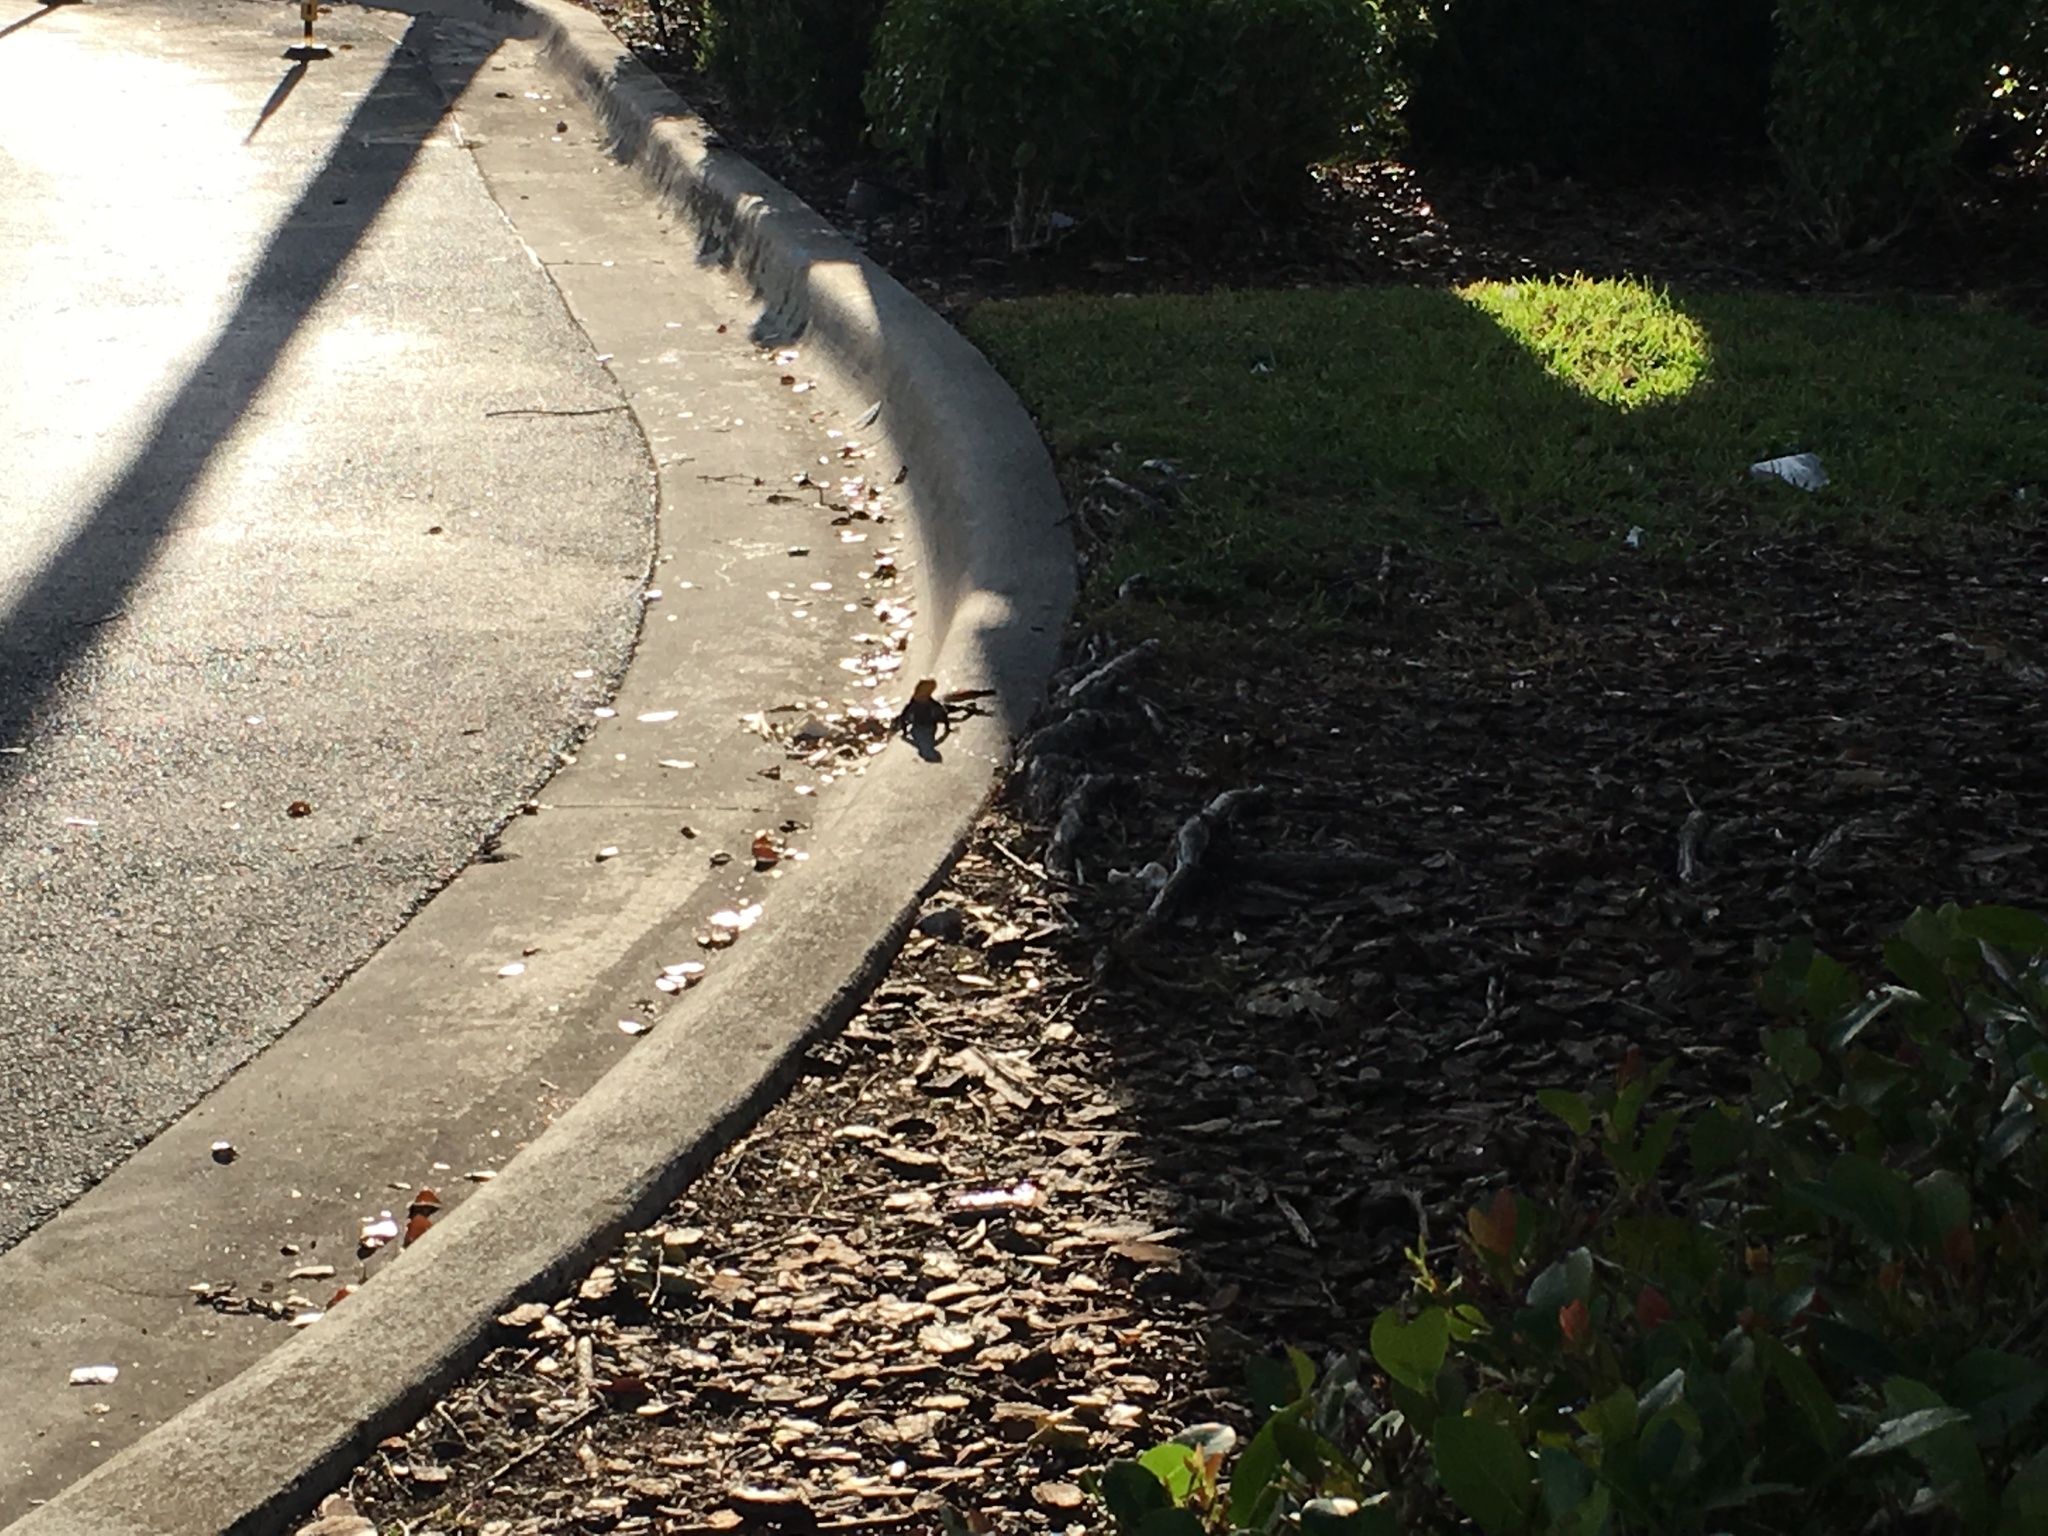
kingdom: Animalia
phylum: Chordata
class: Squamata
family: Agamidae
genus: Agama
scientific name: Agama picticauda
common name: Red-headed agama
